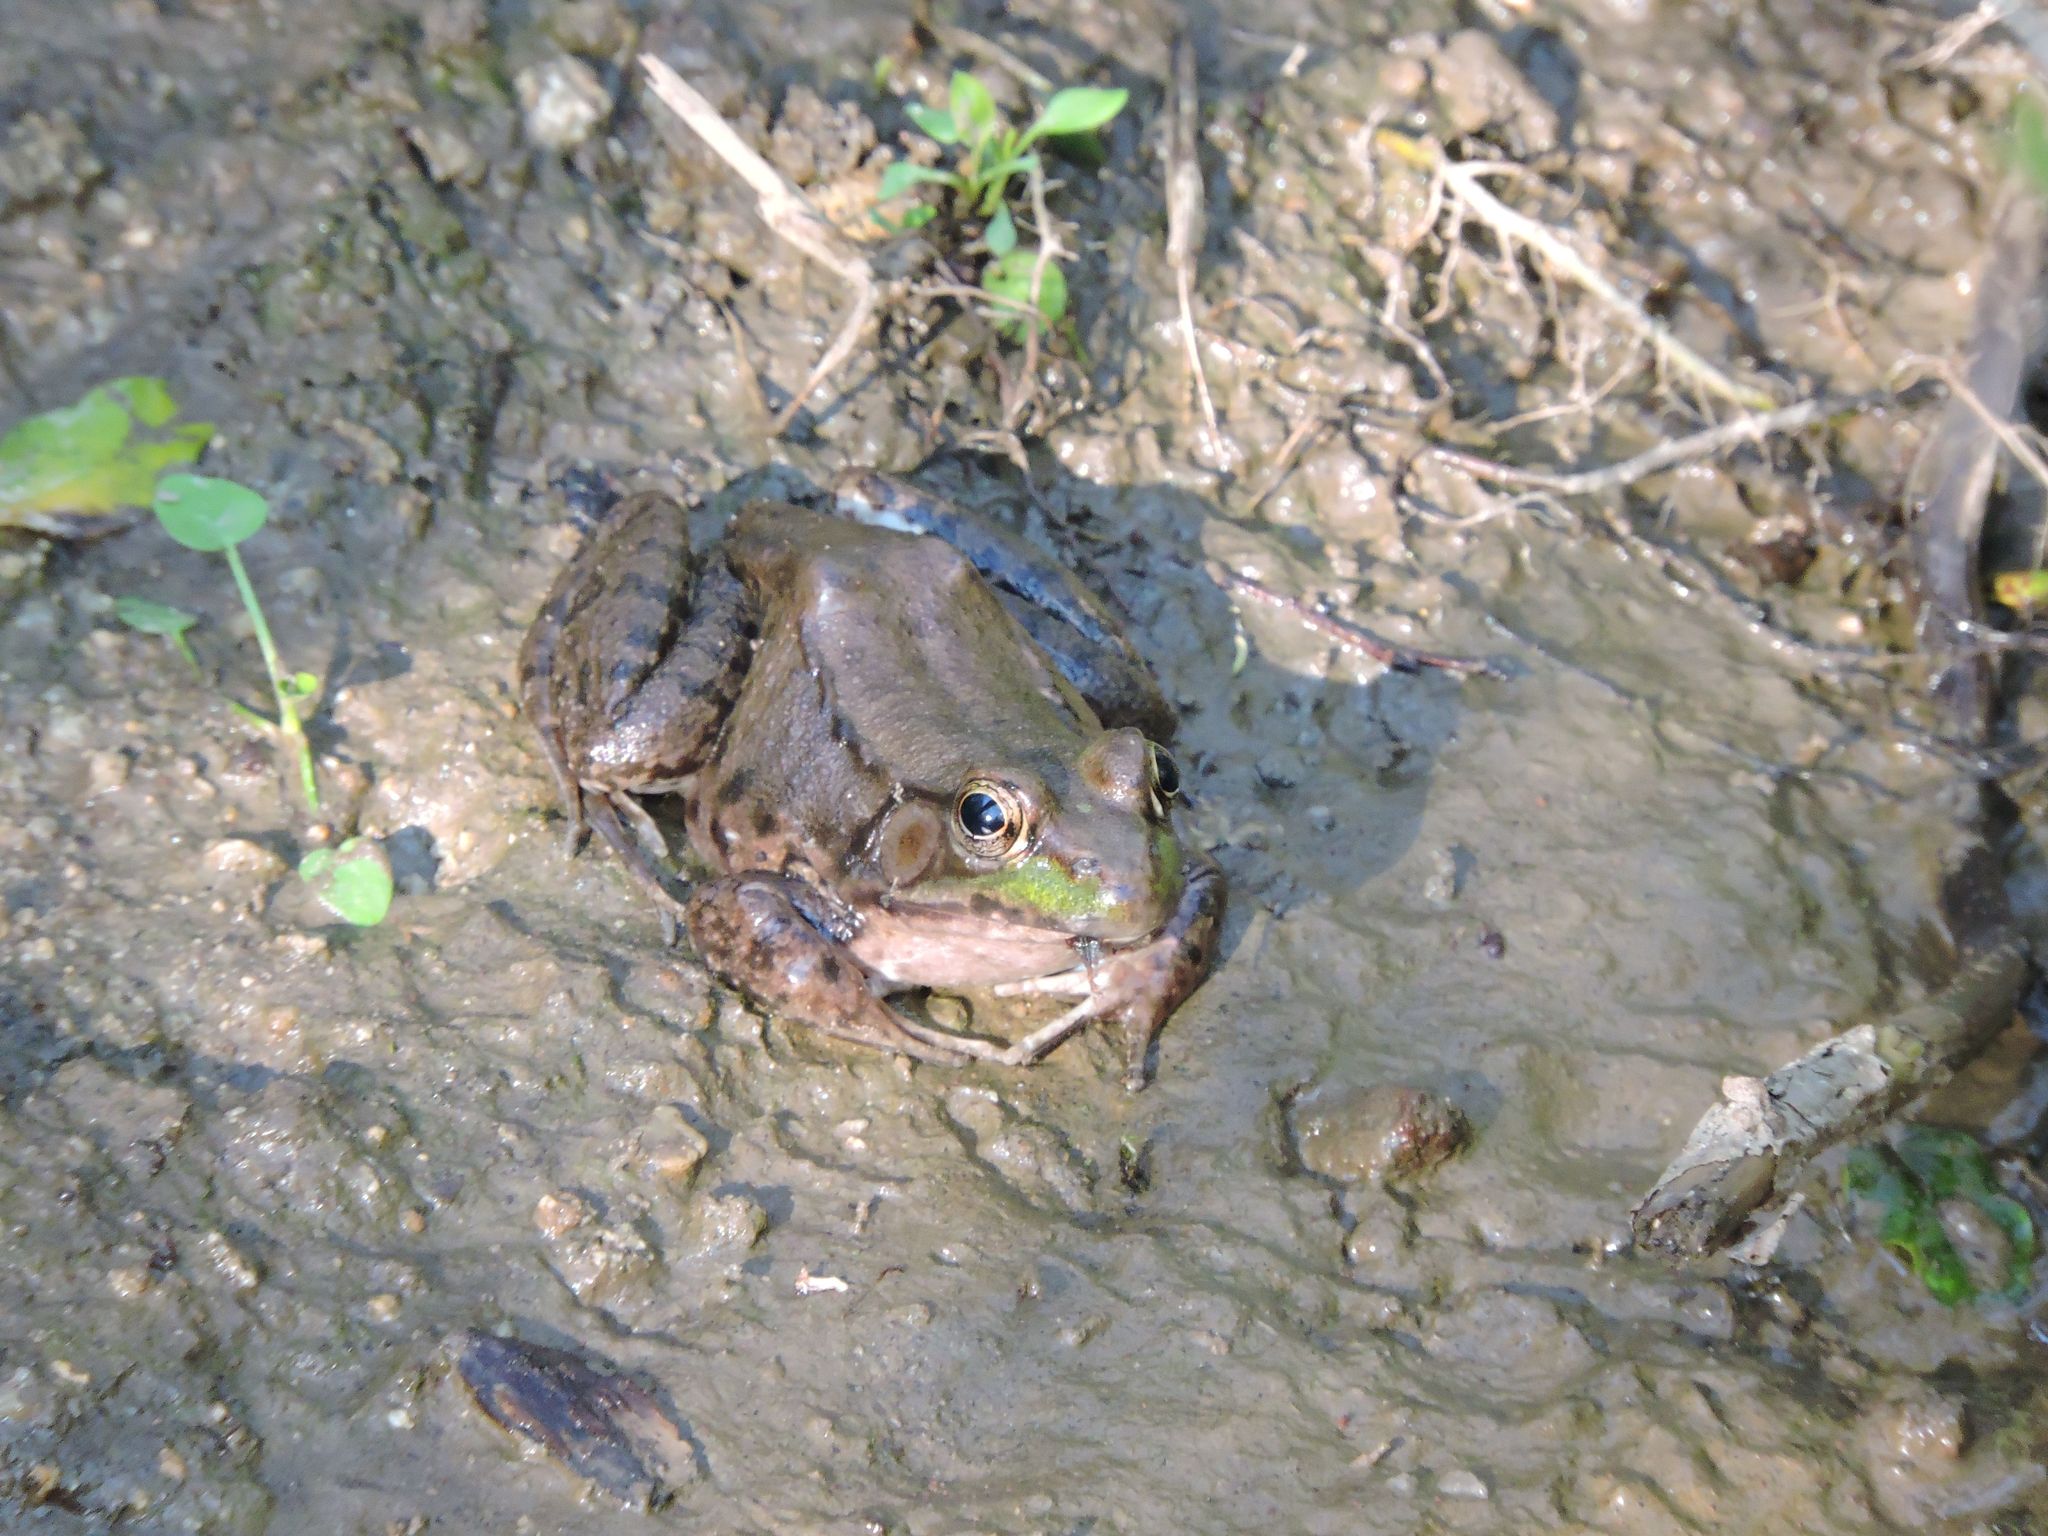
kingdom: Animalia
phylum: Chordata
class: Amphibia
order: Anura
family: Ranidae
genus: Lithobates
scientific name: Lithobates clamitans
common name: Green frog
